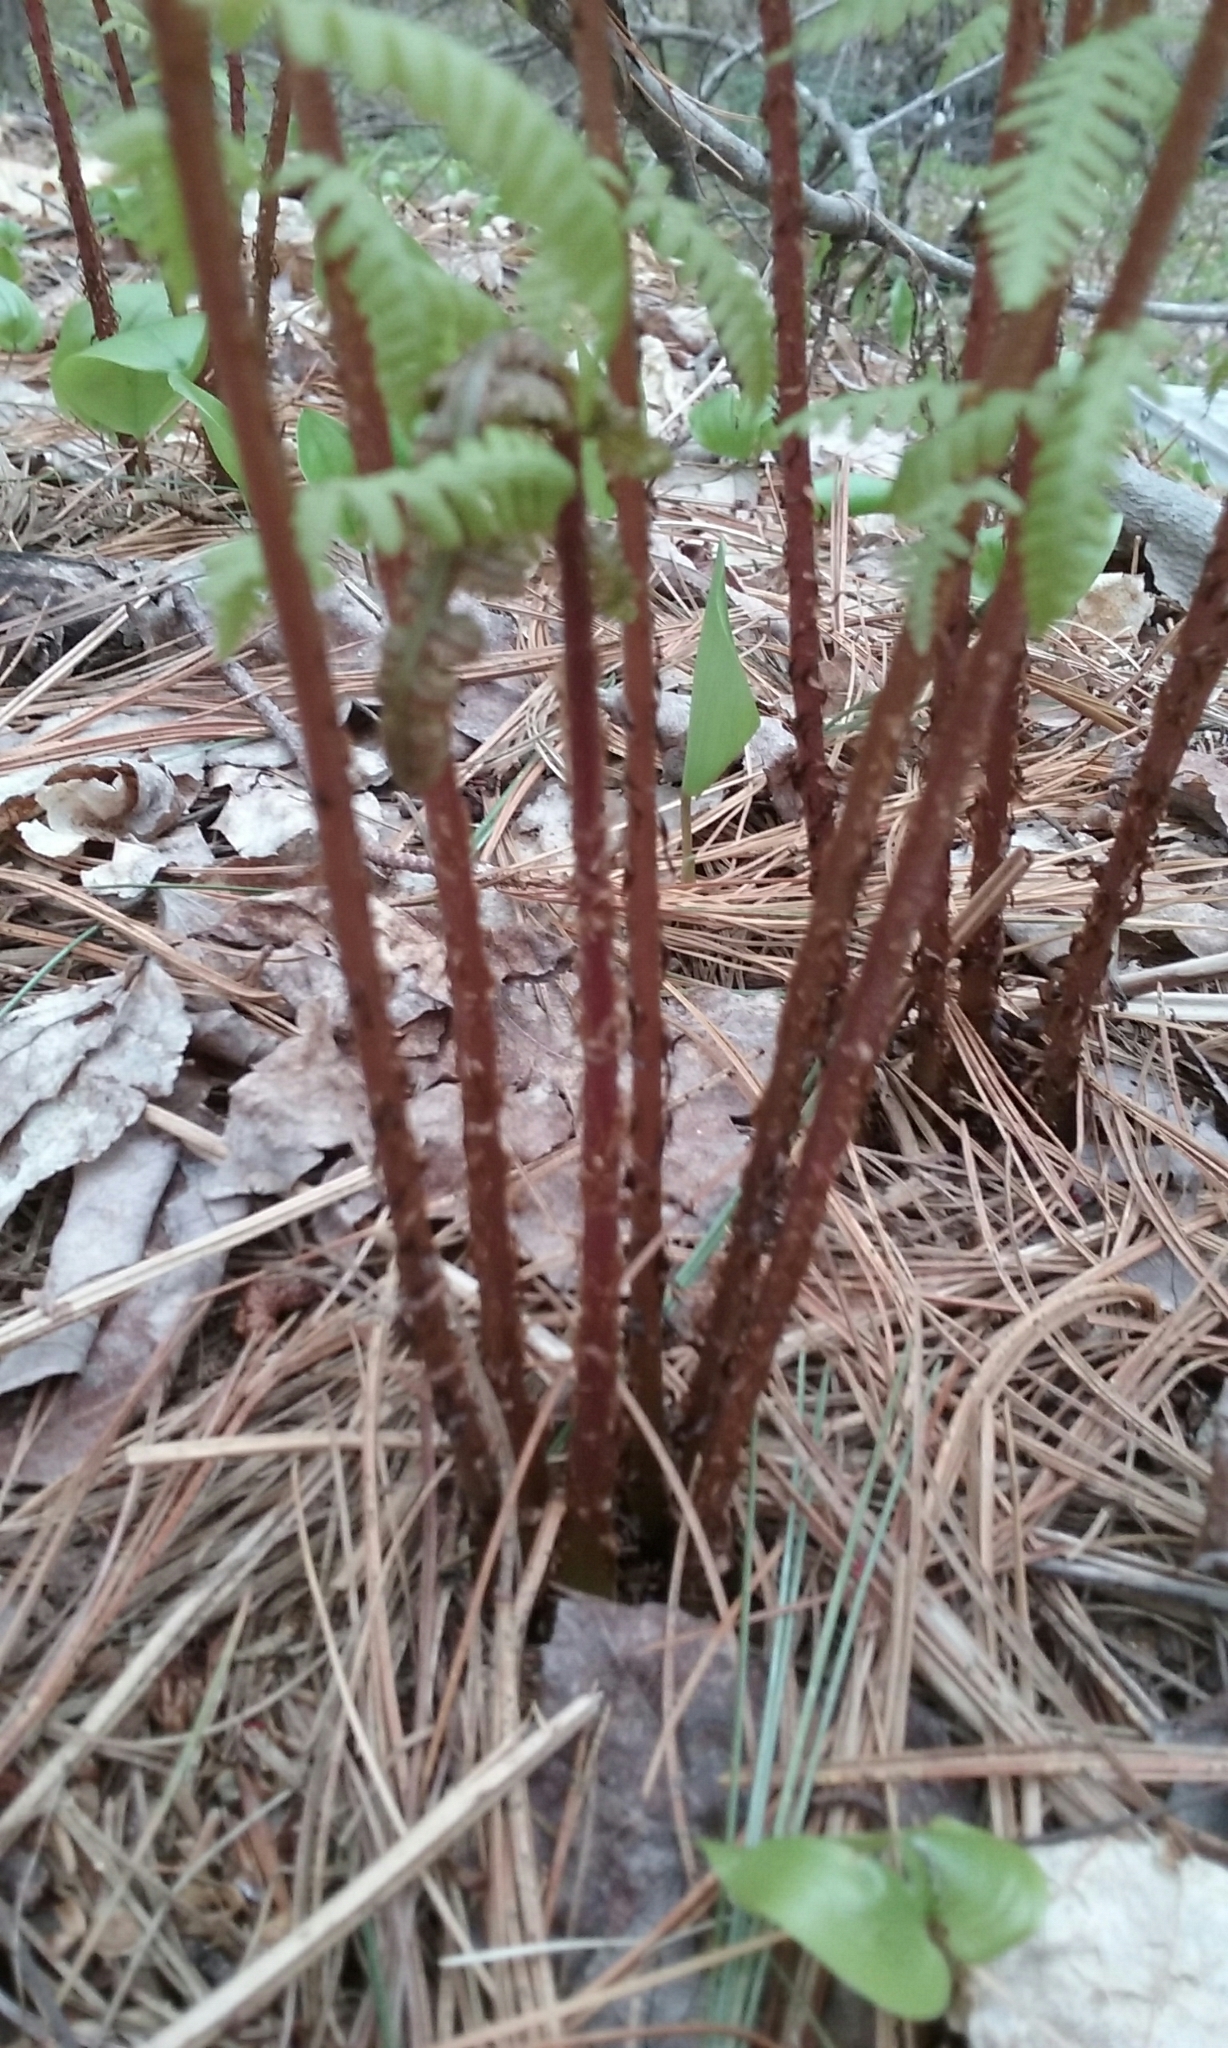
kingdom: Plantae
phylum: Tracheophyta
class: Polypodiopsida
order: Polypodiales
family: Athyriaceae
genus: Athyrium
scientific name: Athyrium angustum
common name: Northern lady fern
